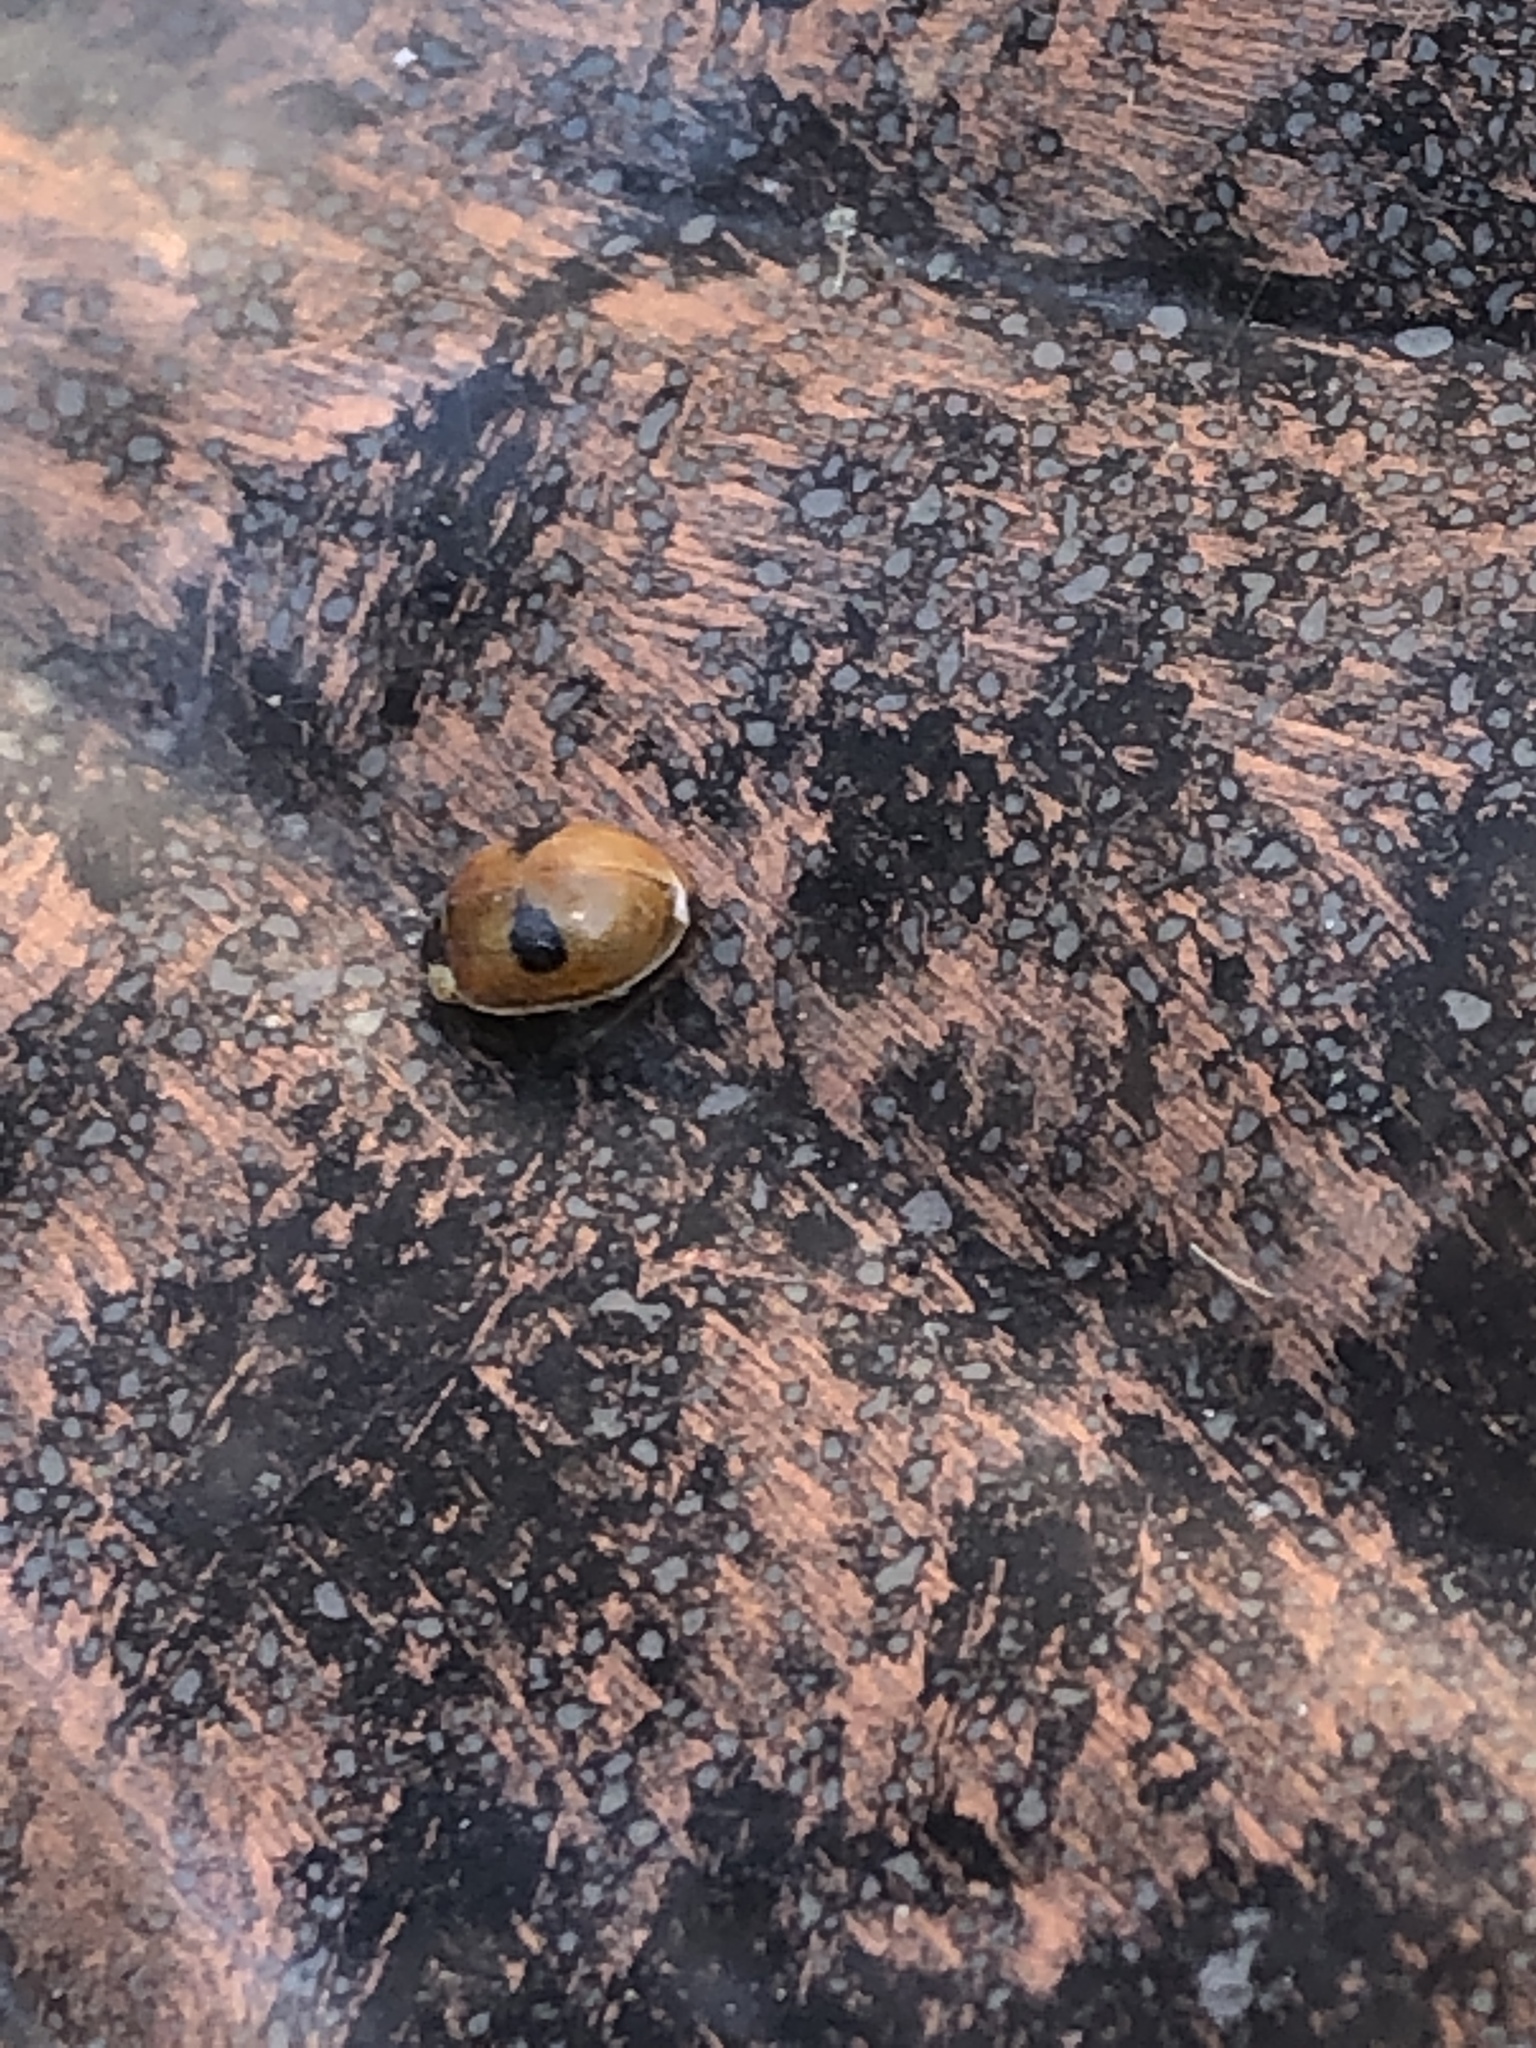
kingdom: Animalia
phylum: Arthropoda
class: Insecta
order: Coleoptera
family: Coccinellidae
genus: Adalia
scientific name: Adalia bipunctata
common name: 2-spot ladybird
